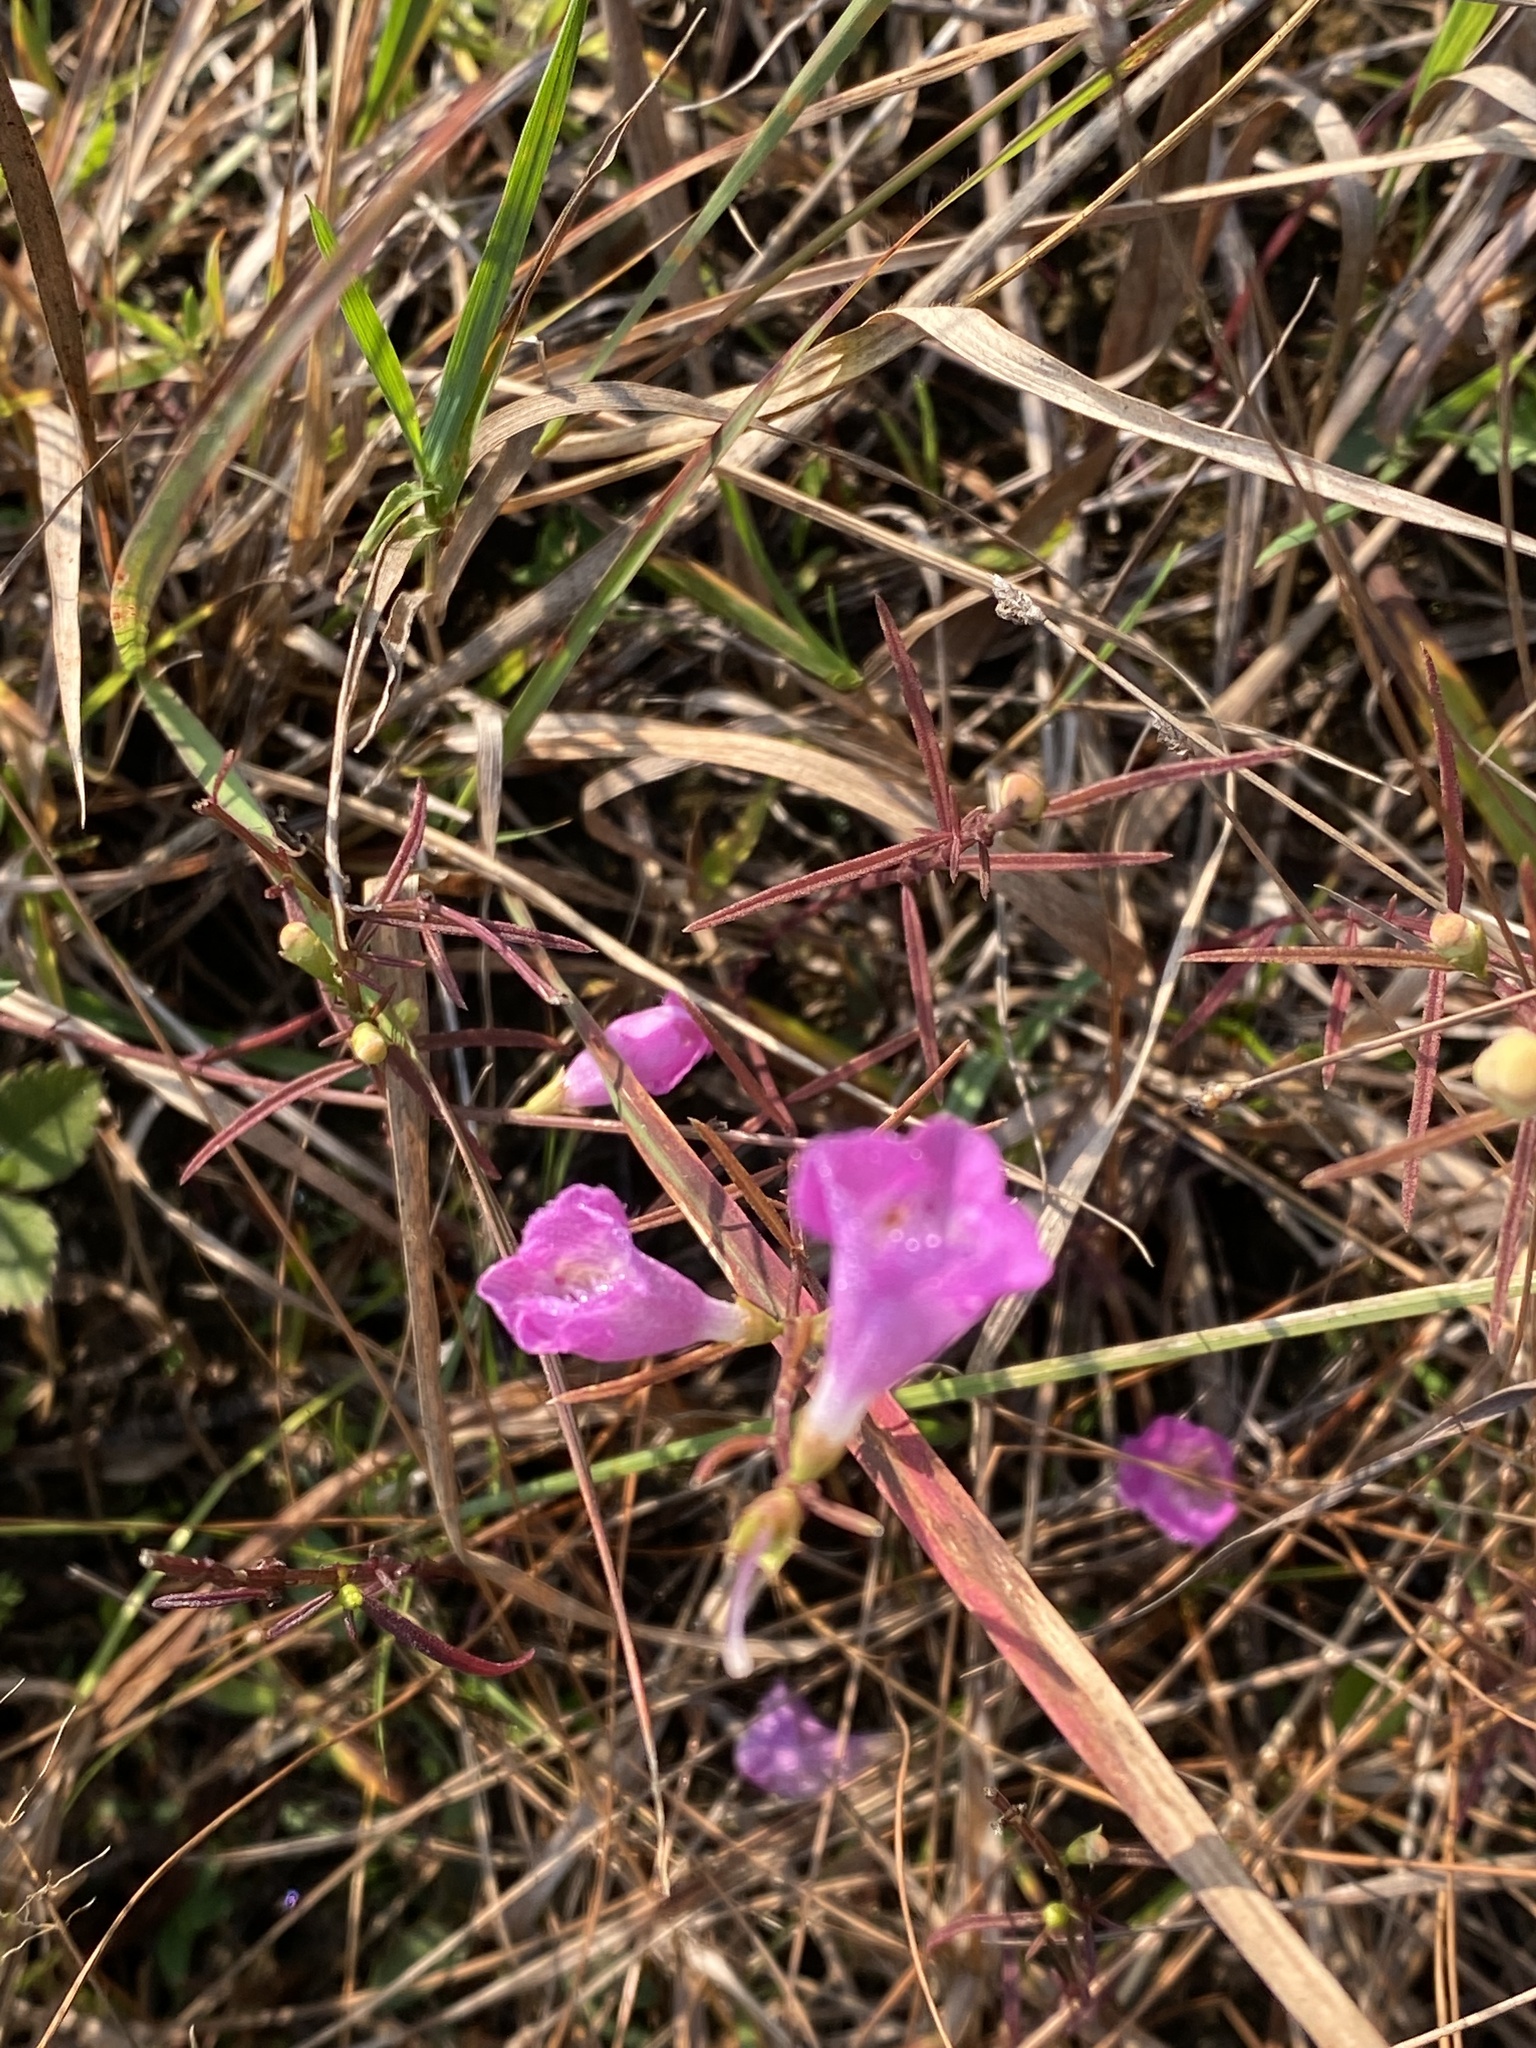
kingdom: Plantae
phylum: Tracheophyta
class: Magnoliopsida
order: Lamiales
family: Orobanchaceae
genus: Agalinis
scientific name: Agalinis purpurea
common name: Purple false foxglove
